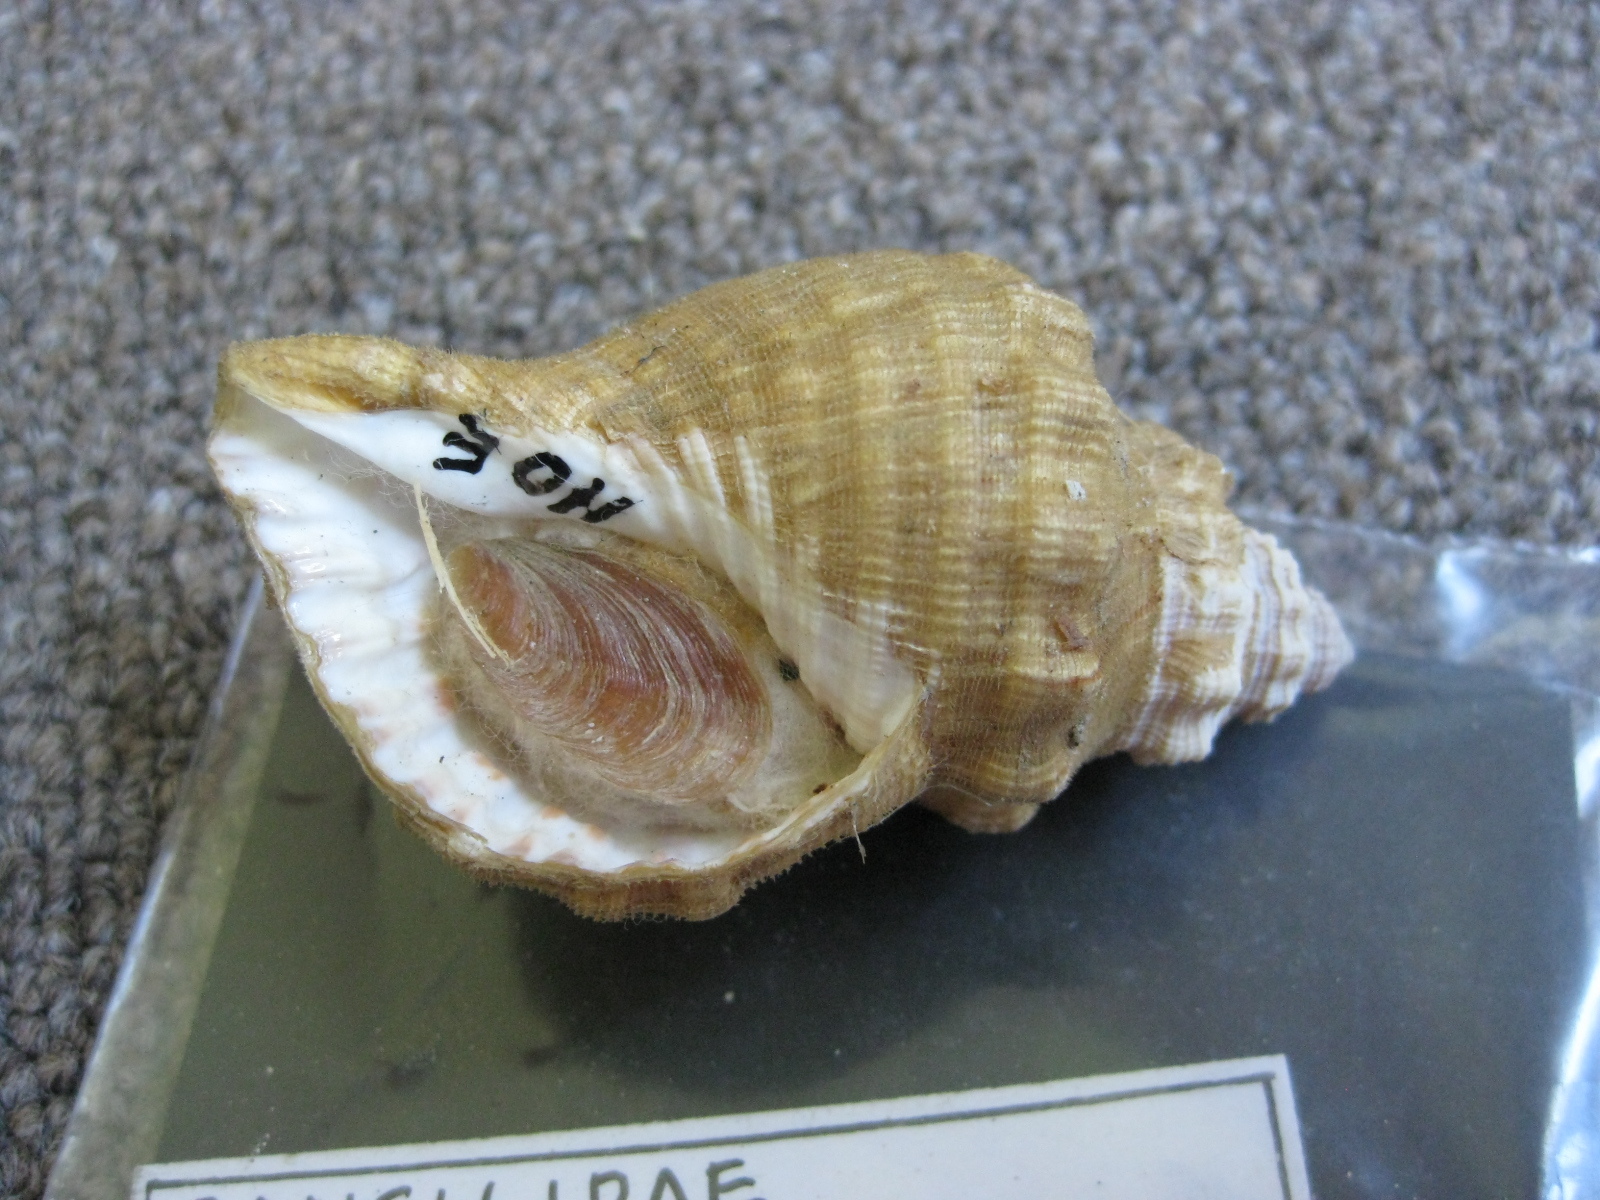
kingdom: Animalia
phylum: Mollusca
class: Gastropoda
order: Littorinimorpha
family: Cymatiidae
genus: Cabestana
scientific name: Cabestana spengleri
